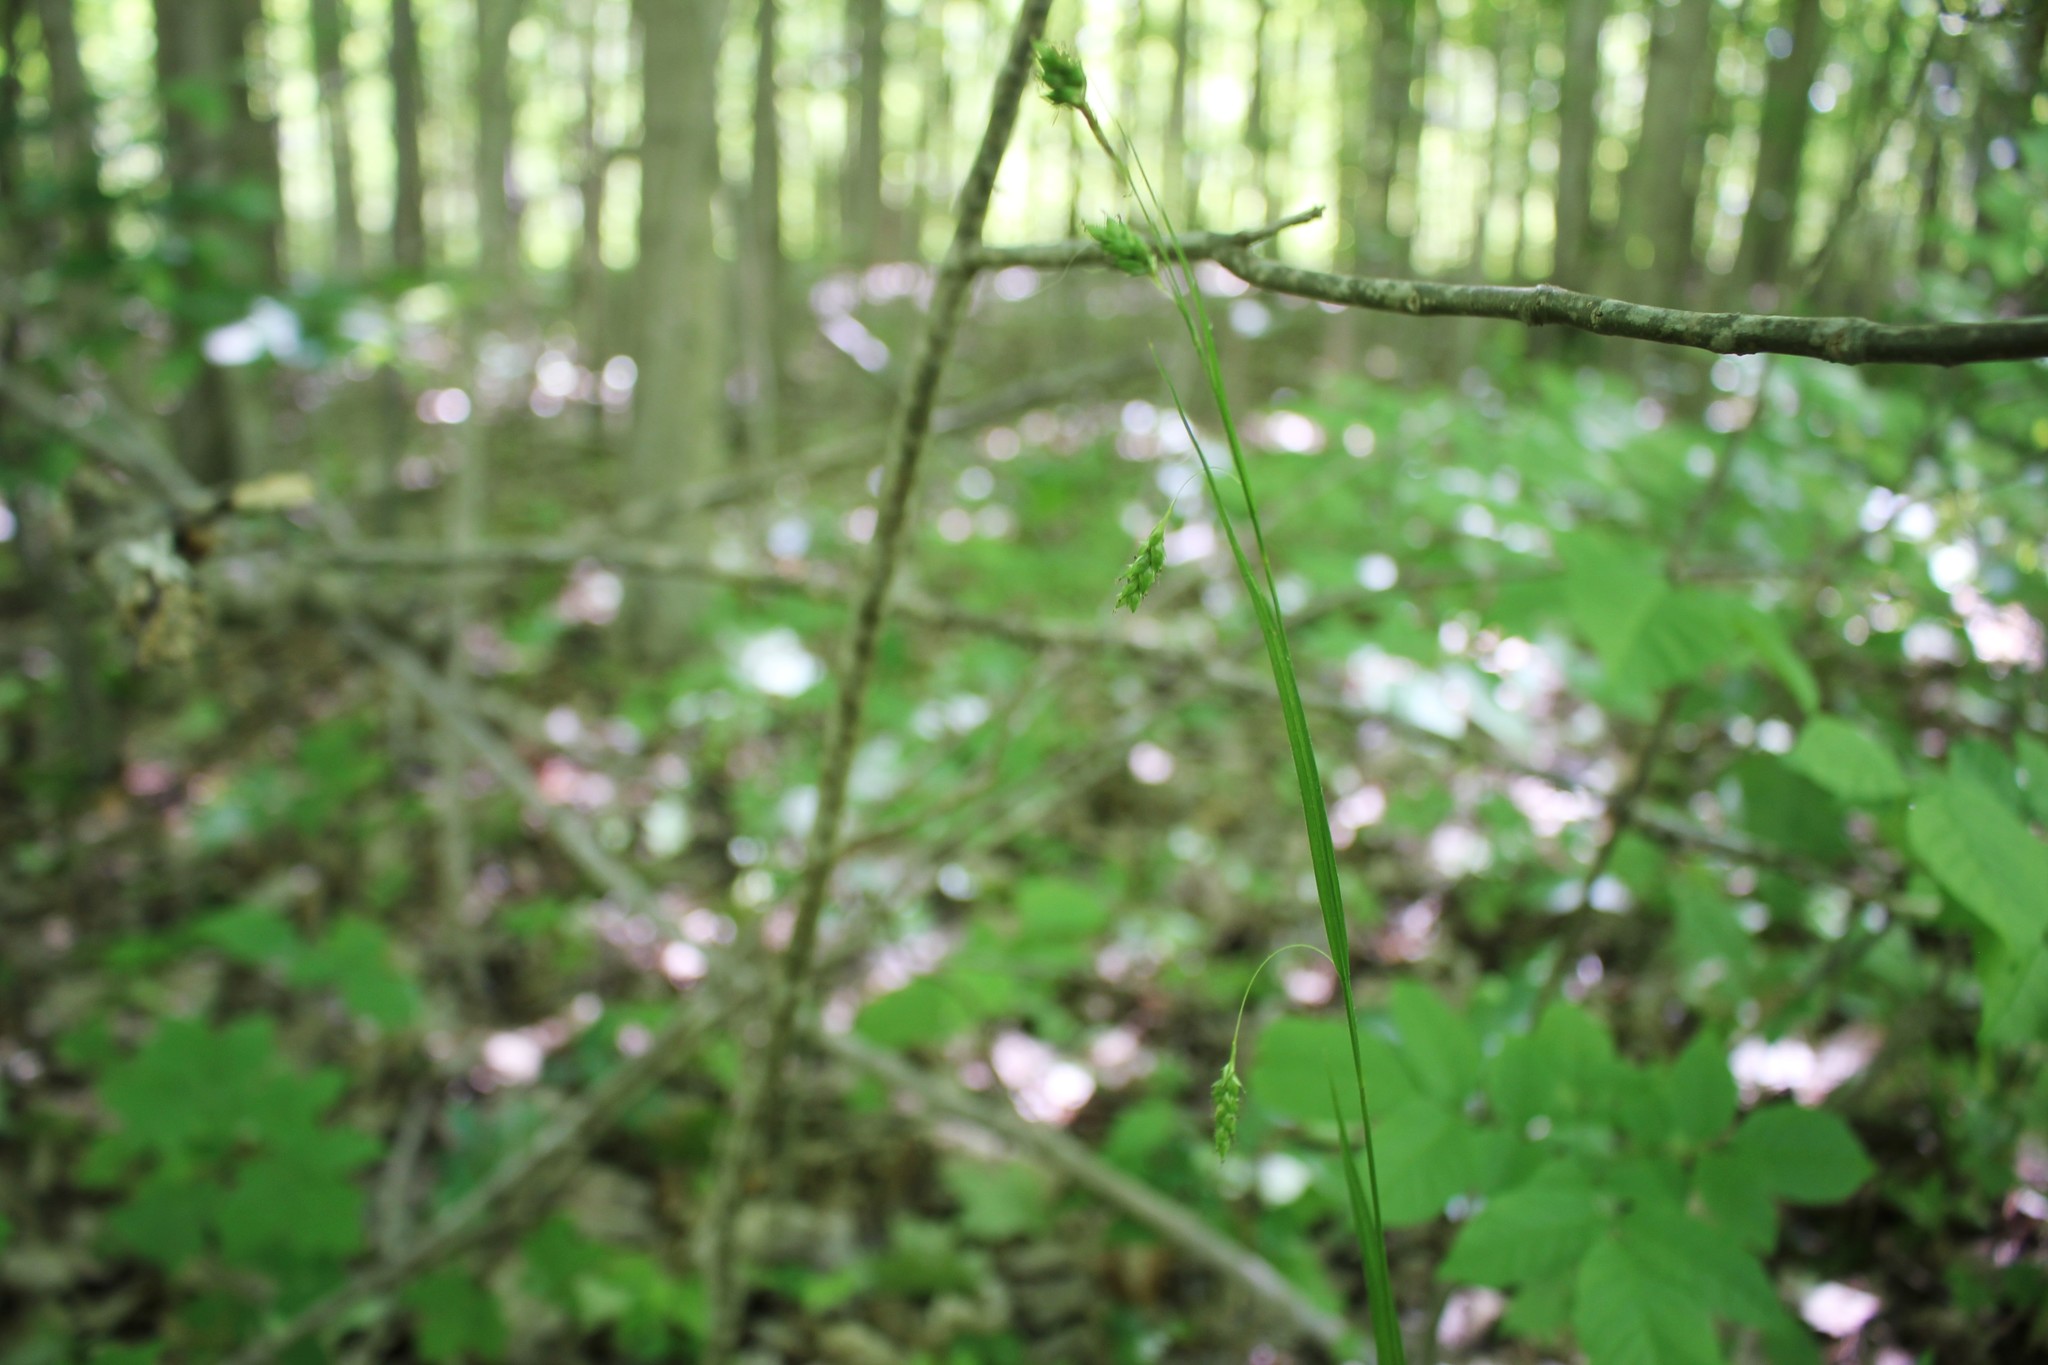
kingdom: Plantae
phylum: Tracheophyta
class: Liliopsida
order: Poales
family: Cyperaceae
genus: Carex
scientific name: Carex formosa
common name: Awnless graceful sedge
